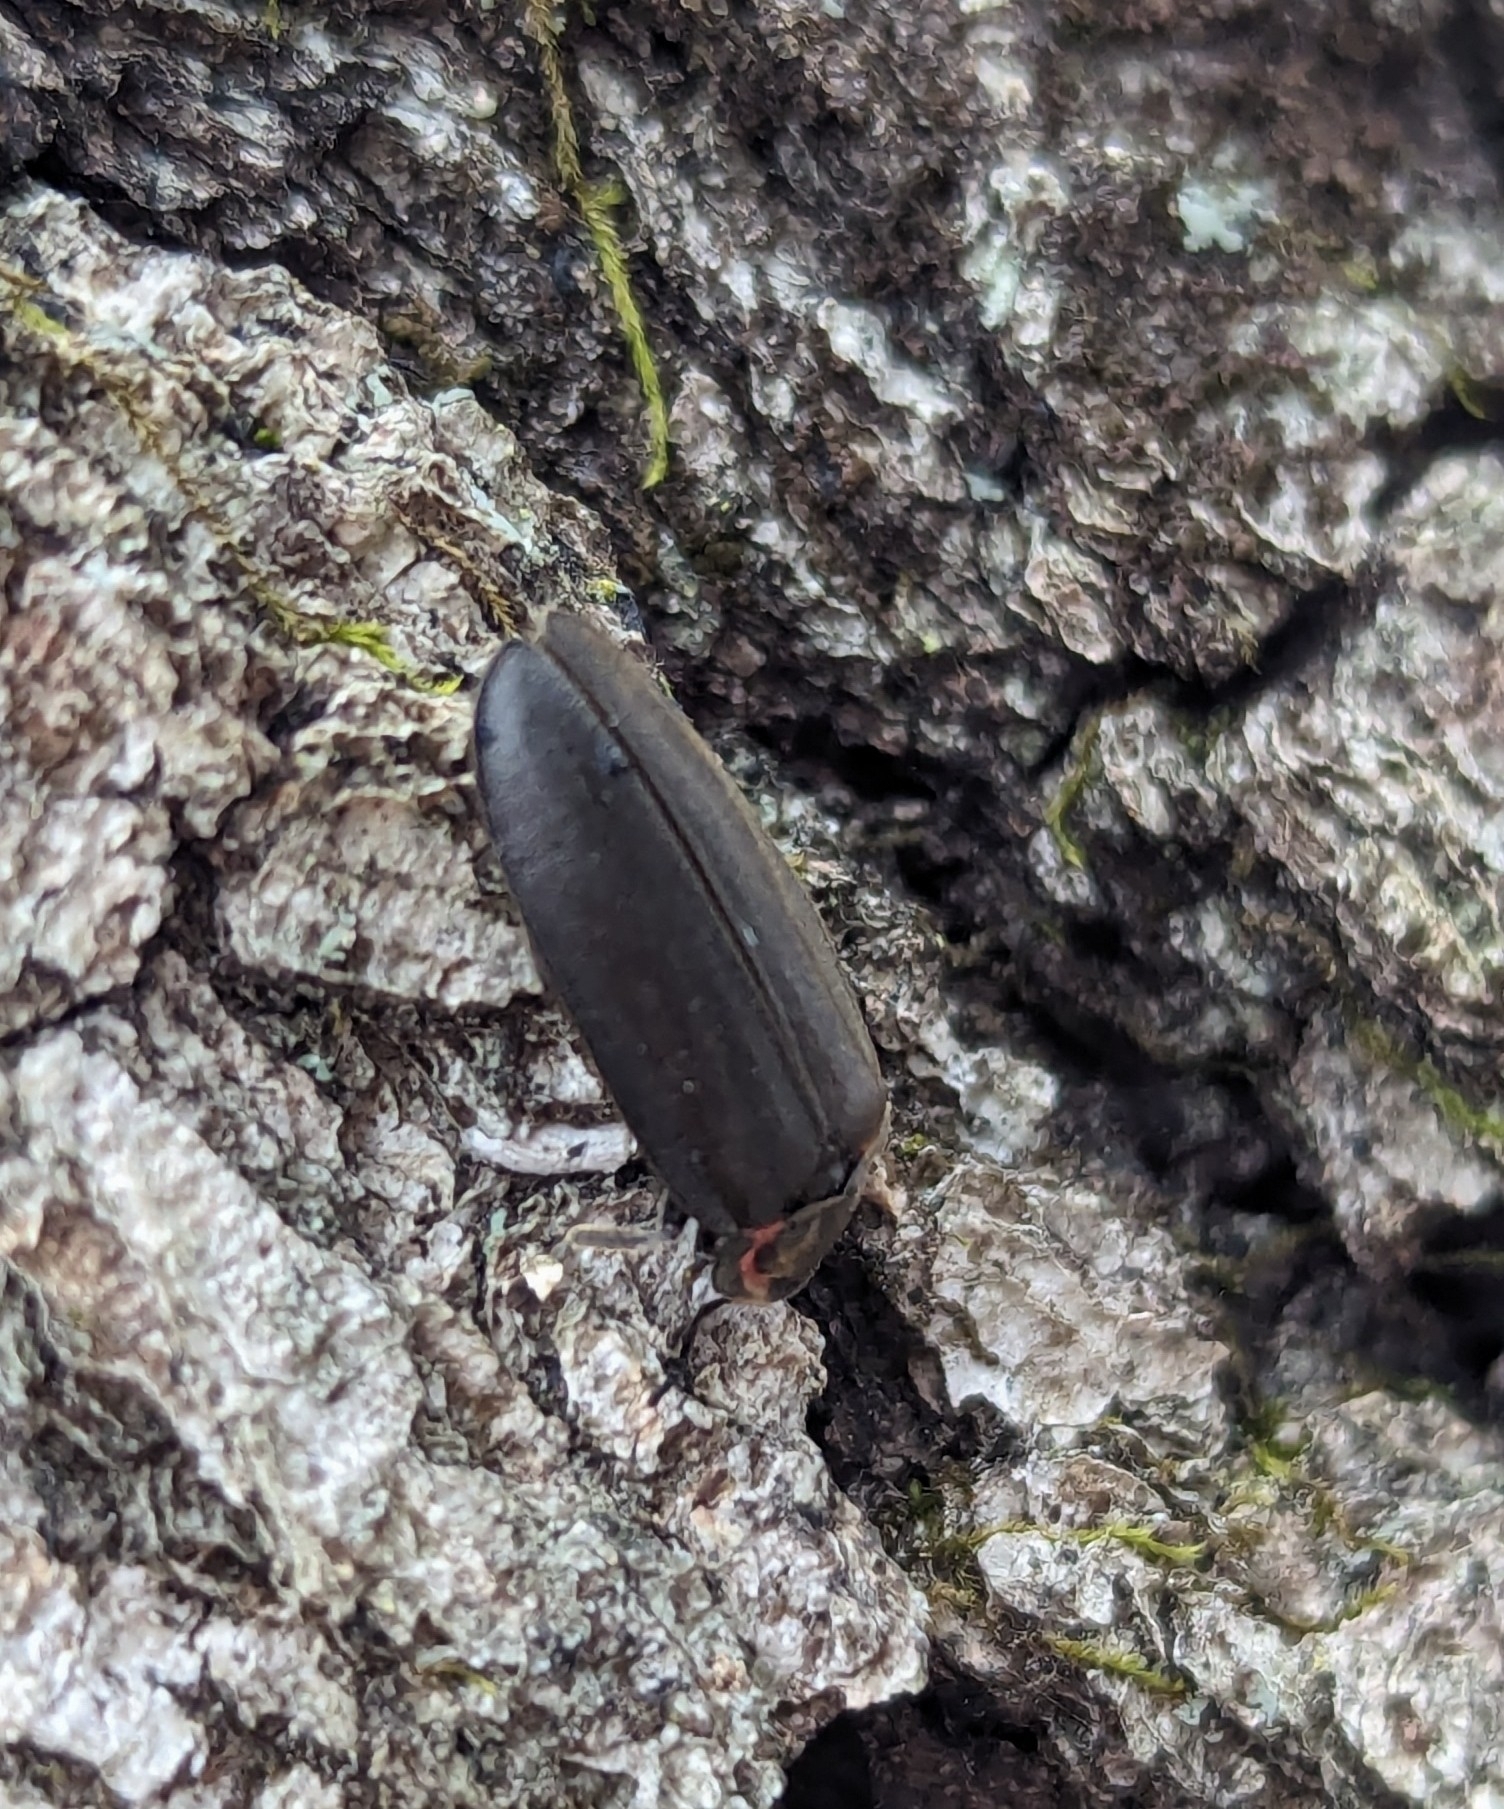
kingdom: Animalia
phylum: Arthropoda
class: Insecta
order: Coleoptera
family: Lampyridae
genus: Photinus
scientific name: Photinus corrusca
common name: Winter firefly
